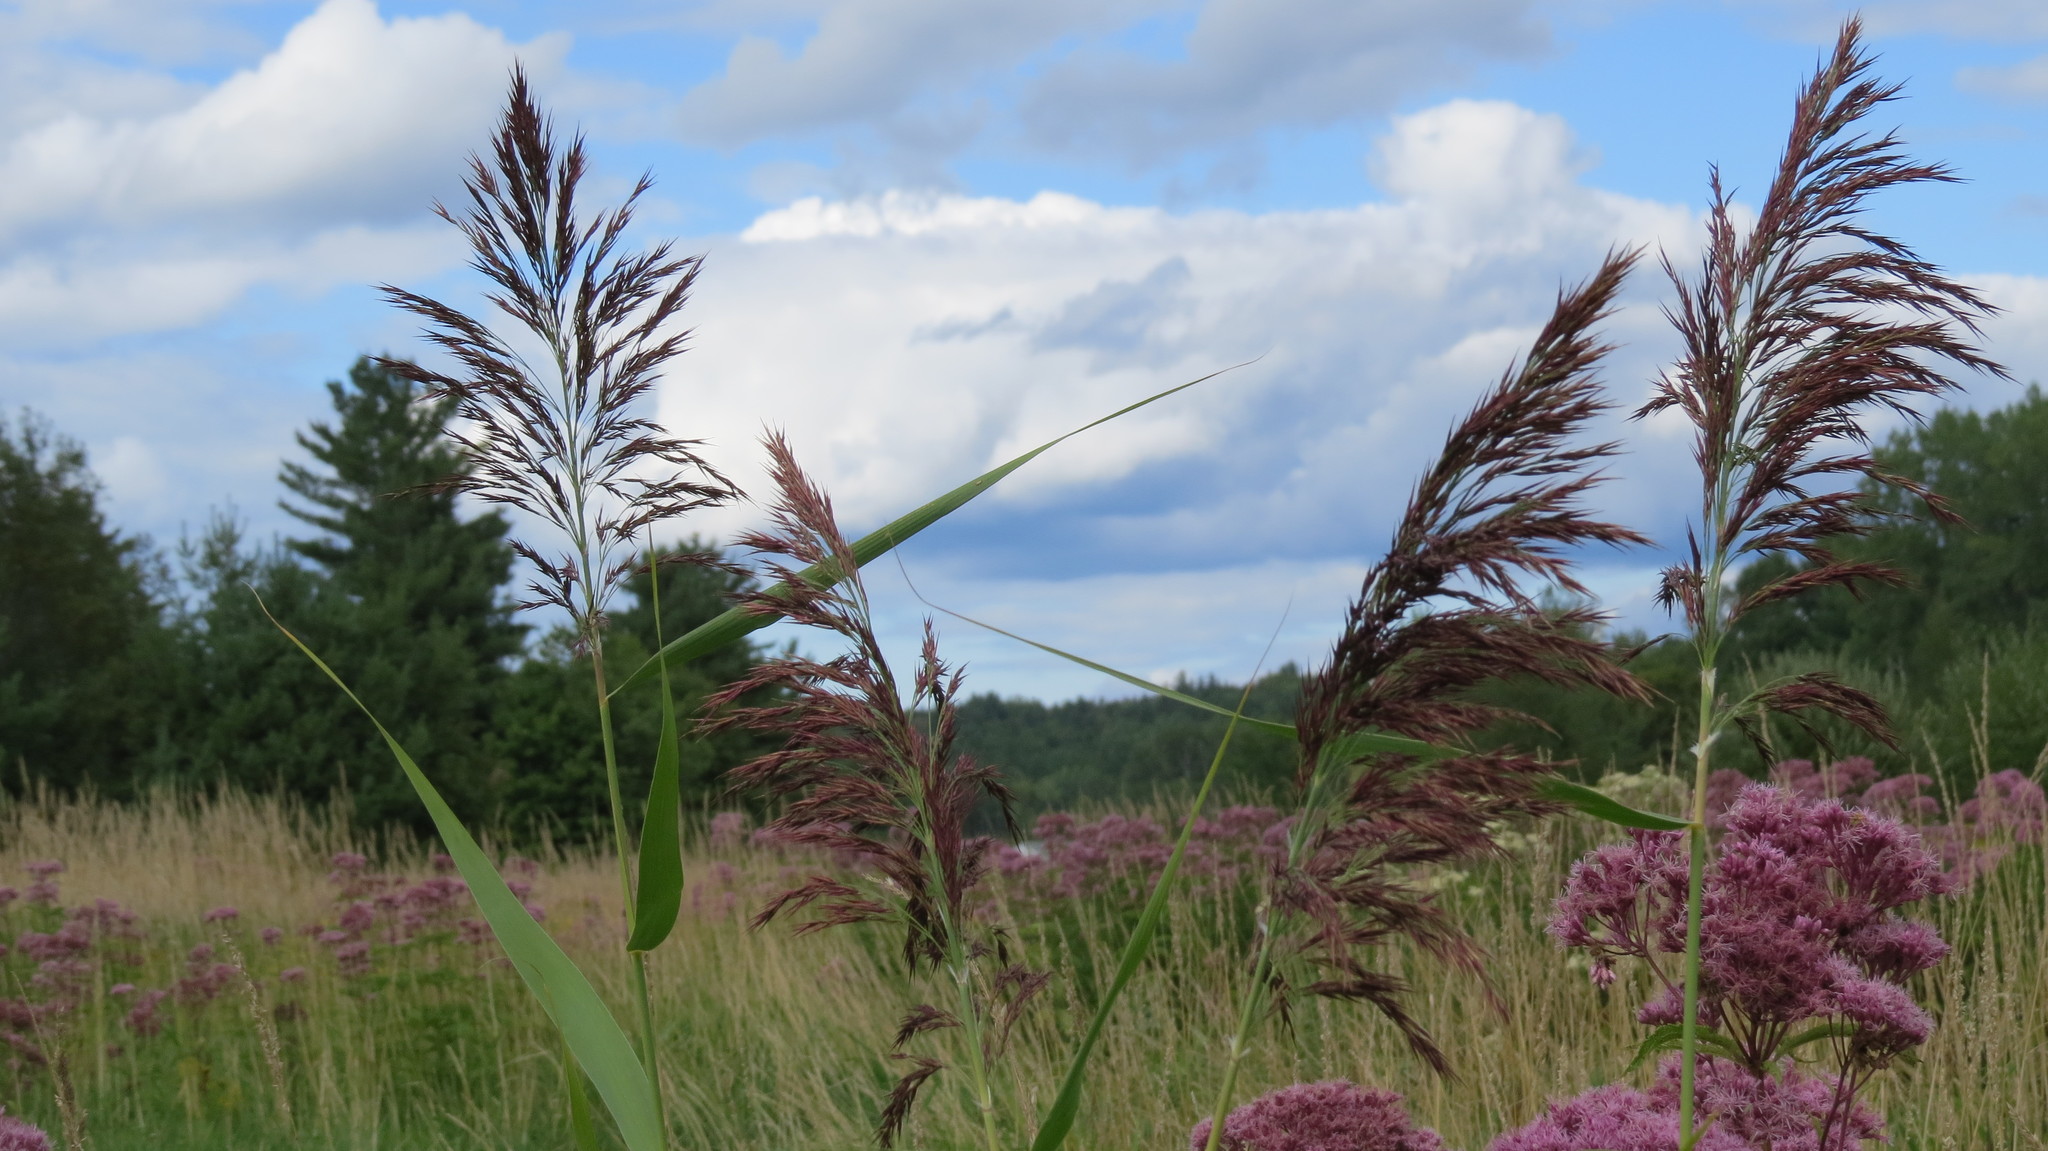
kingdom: Plantae
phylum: Tracheophyta
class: Liliopsida
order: Poales
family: Poaceae
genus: Phragmites
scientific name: Phragmites australis
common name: Common reed
